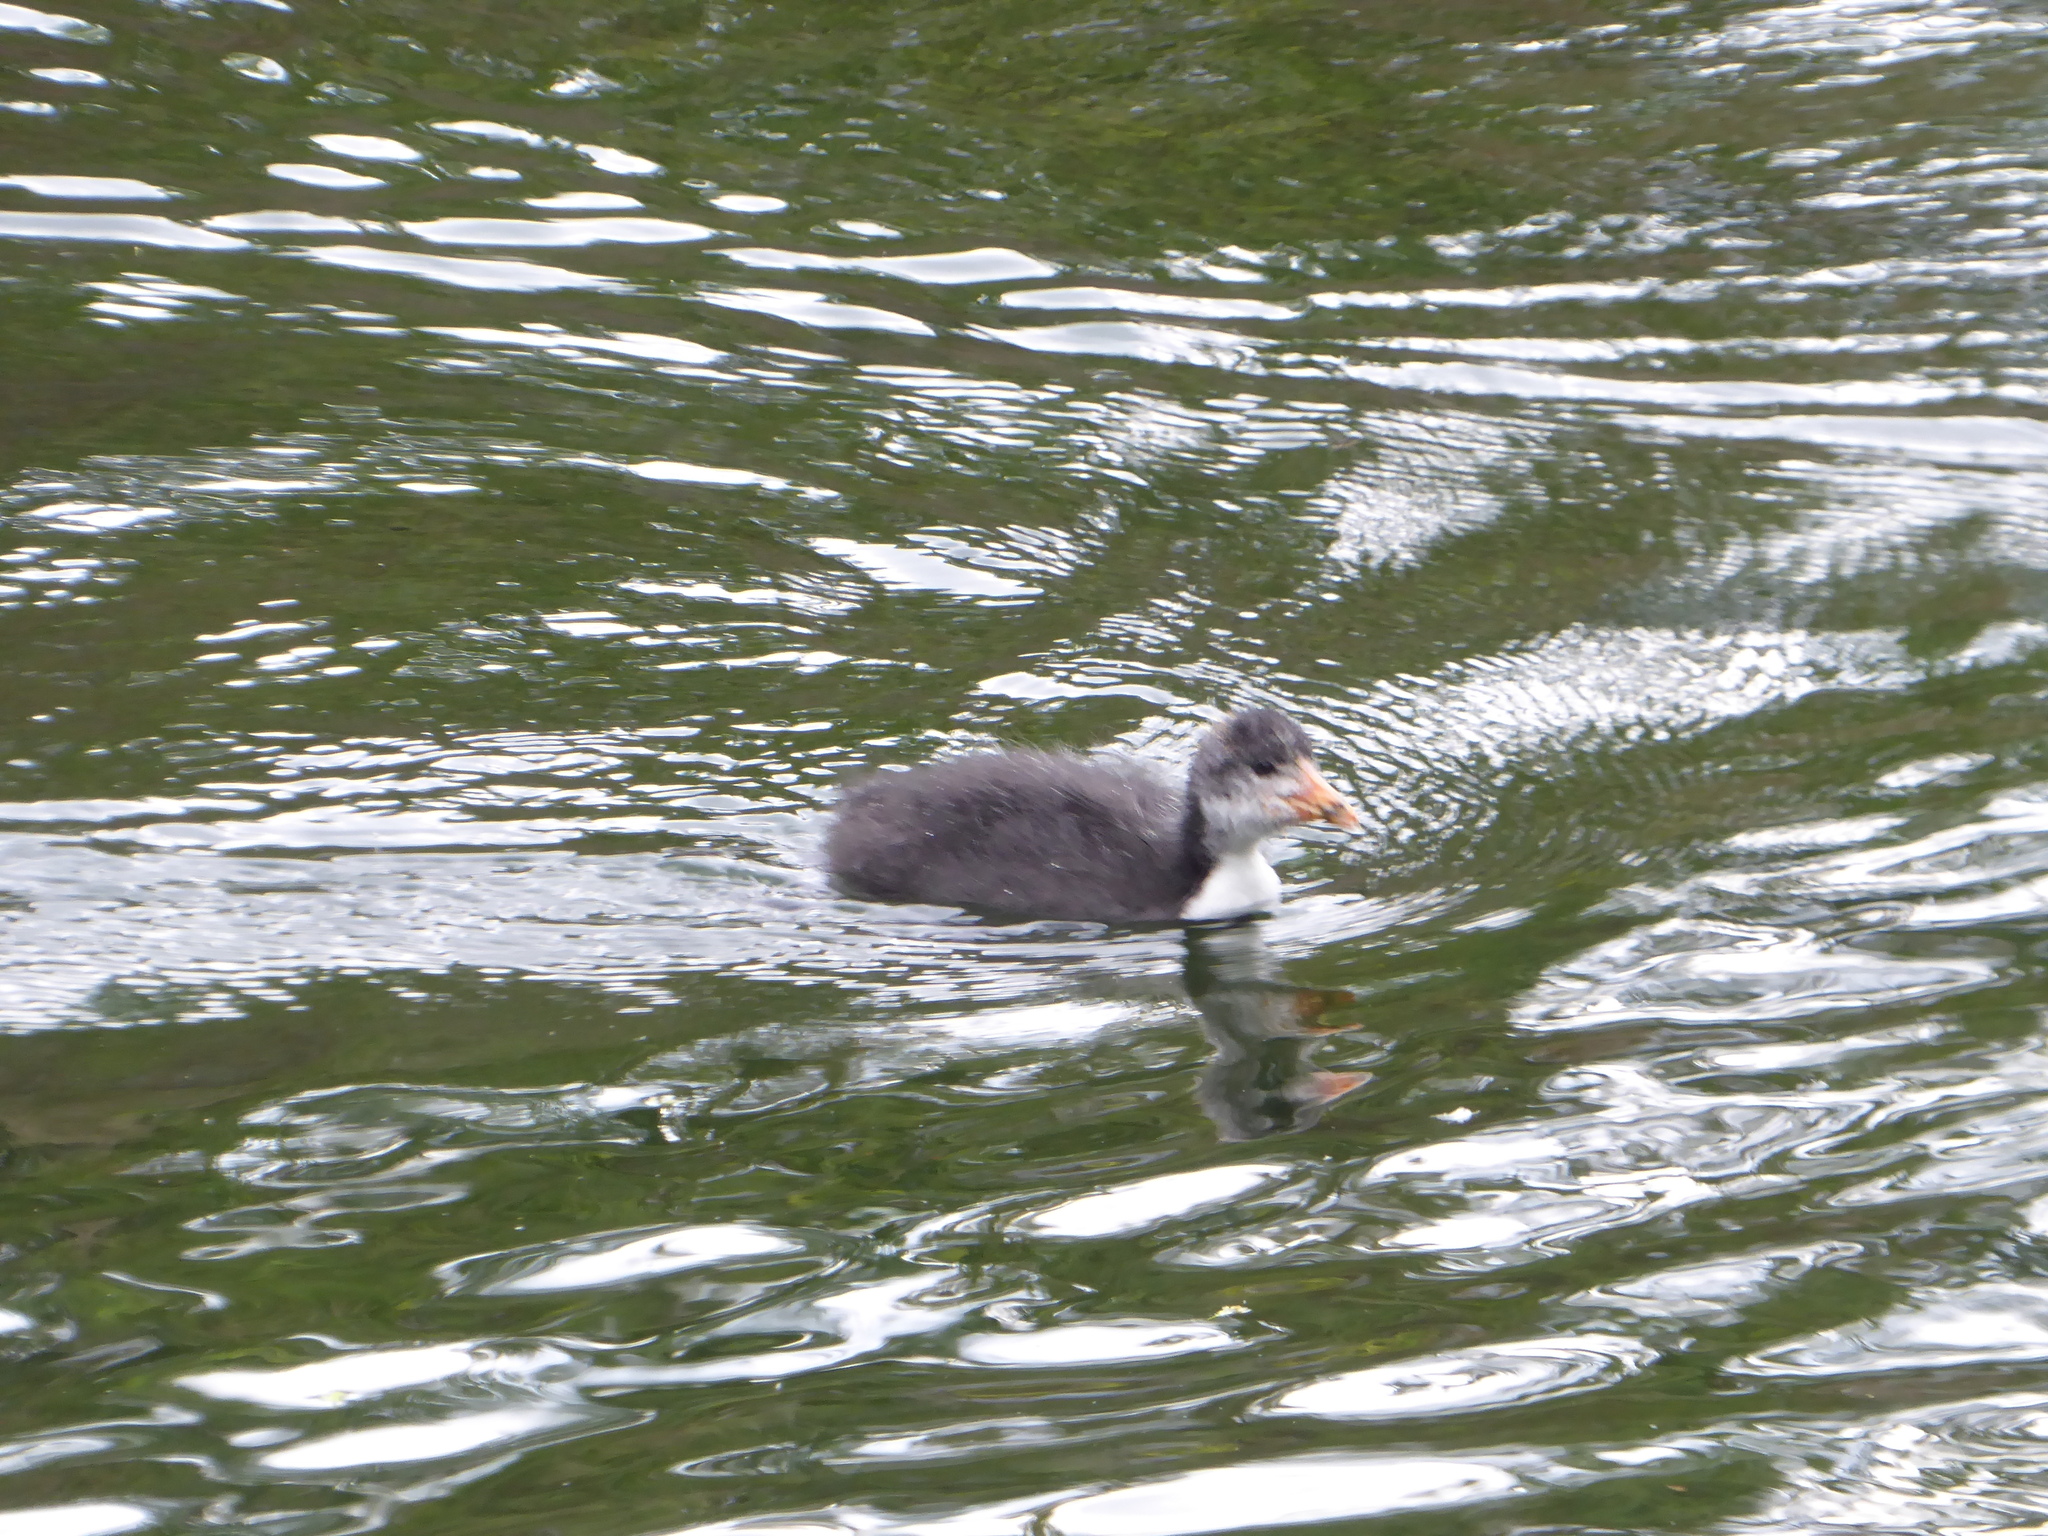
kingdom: Animalia
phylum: Chordata
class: Aves
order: Gruiformes
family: Rallidae
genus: Fulica
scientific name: Fulica atra
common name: Eurasian coot
